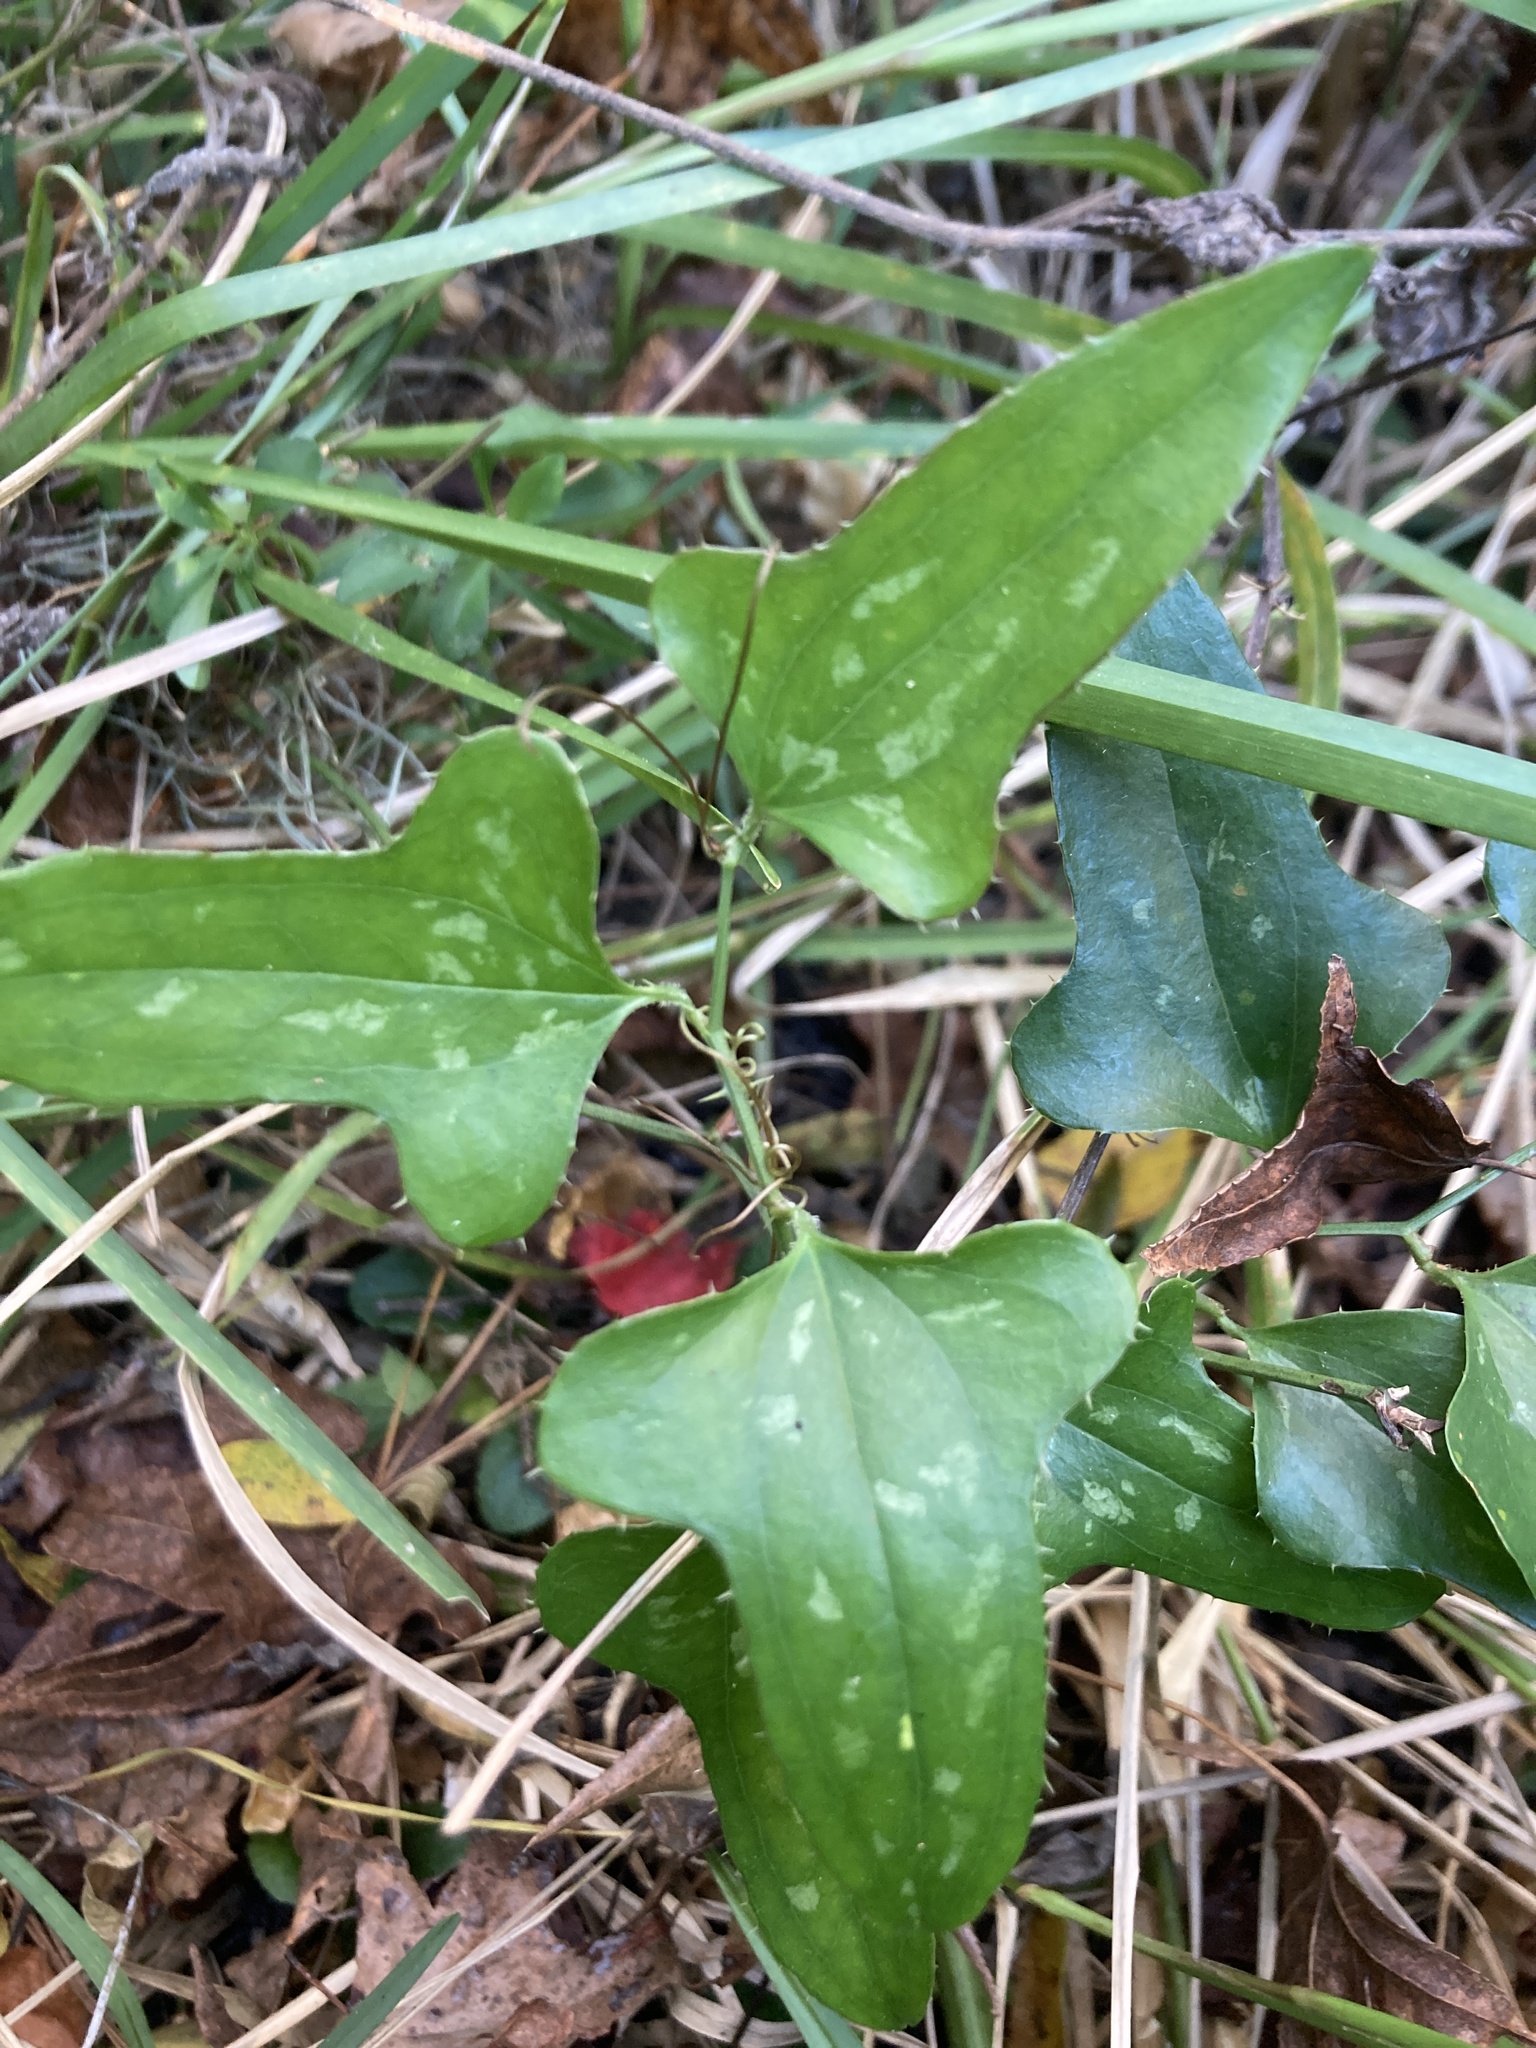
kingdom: Plantae
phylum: Tracheophyta
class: Liliopsida
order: Liliales
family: Smilacaceae
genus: Smilax
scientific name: Smilax bona-nox
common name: Catbrier
